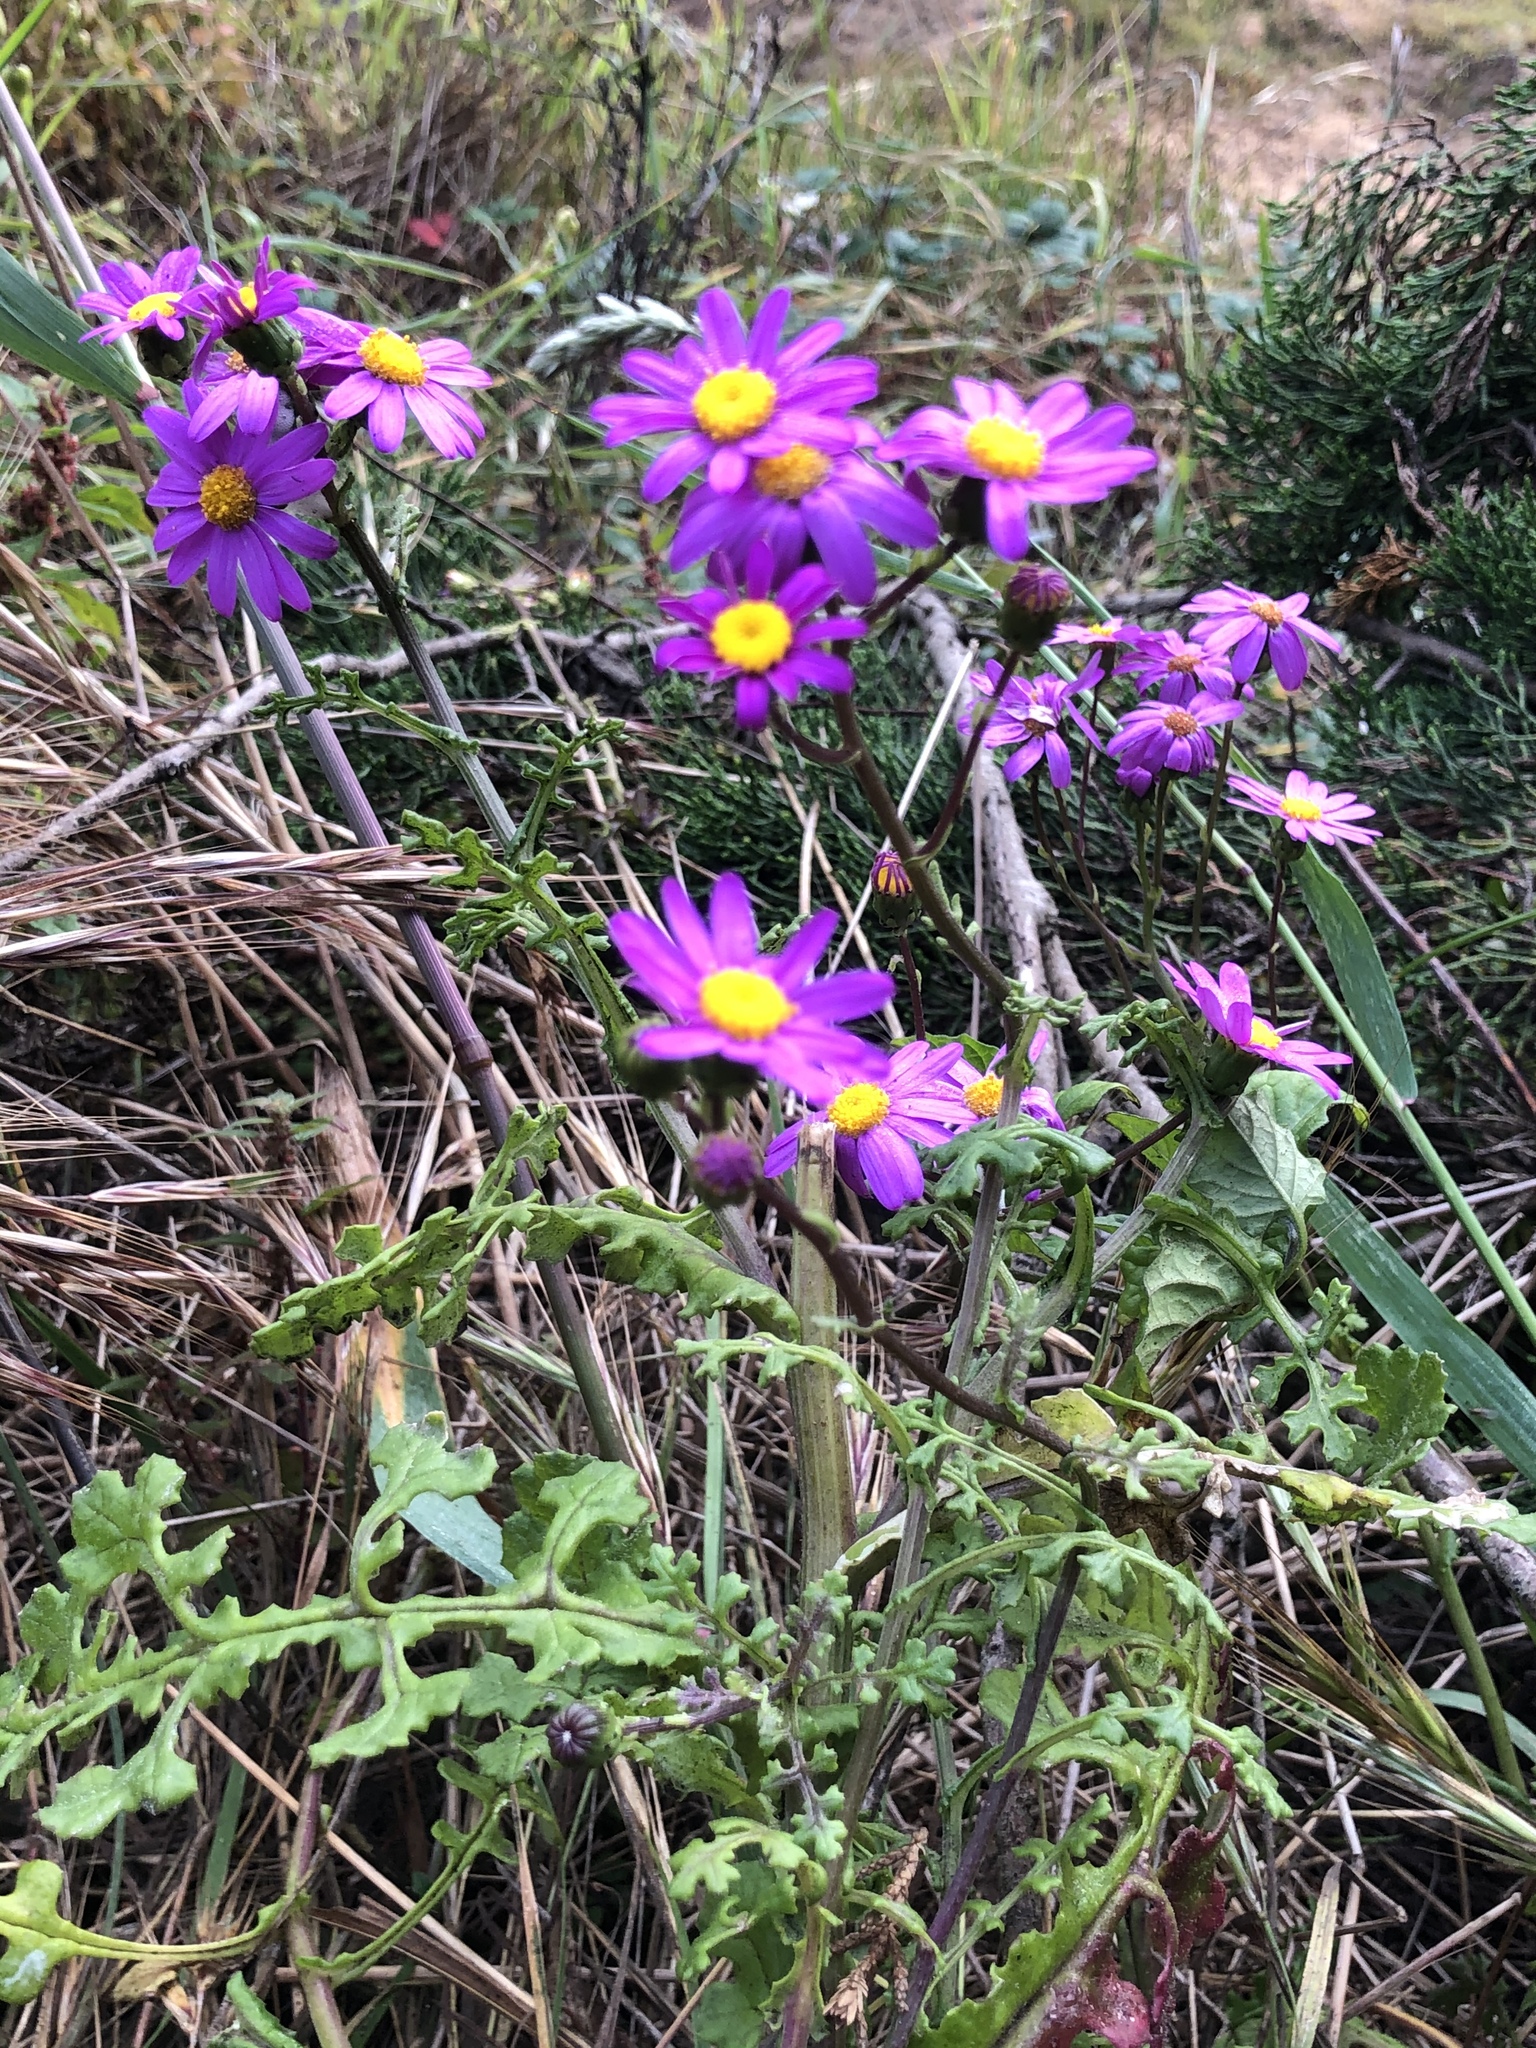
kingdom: Plantae
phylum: Tracheophyta
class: Magnoliopsida
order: Asterales
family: Asteraceae
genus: Senecio
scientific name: Senecio elegans
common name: Purple groundsel
